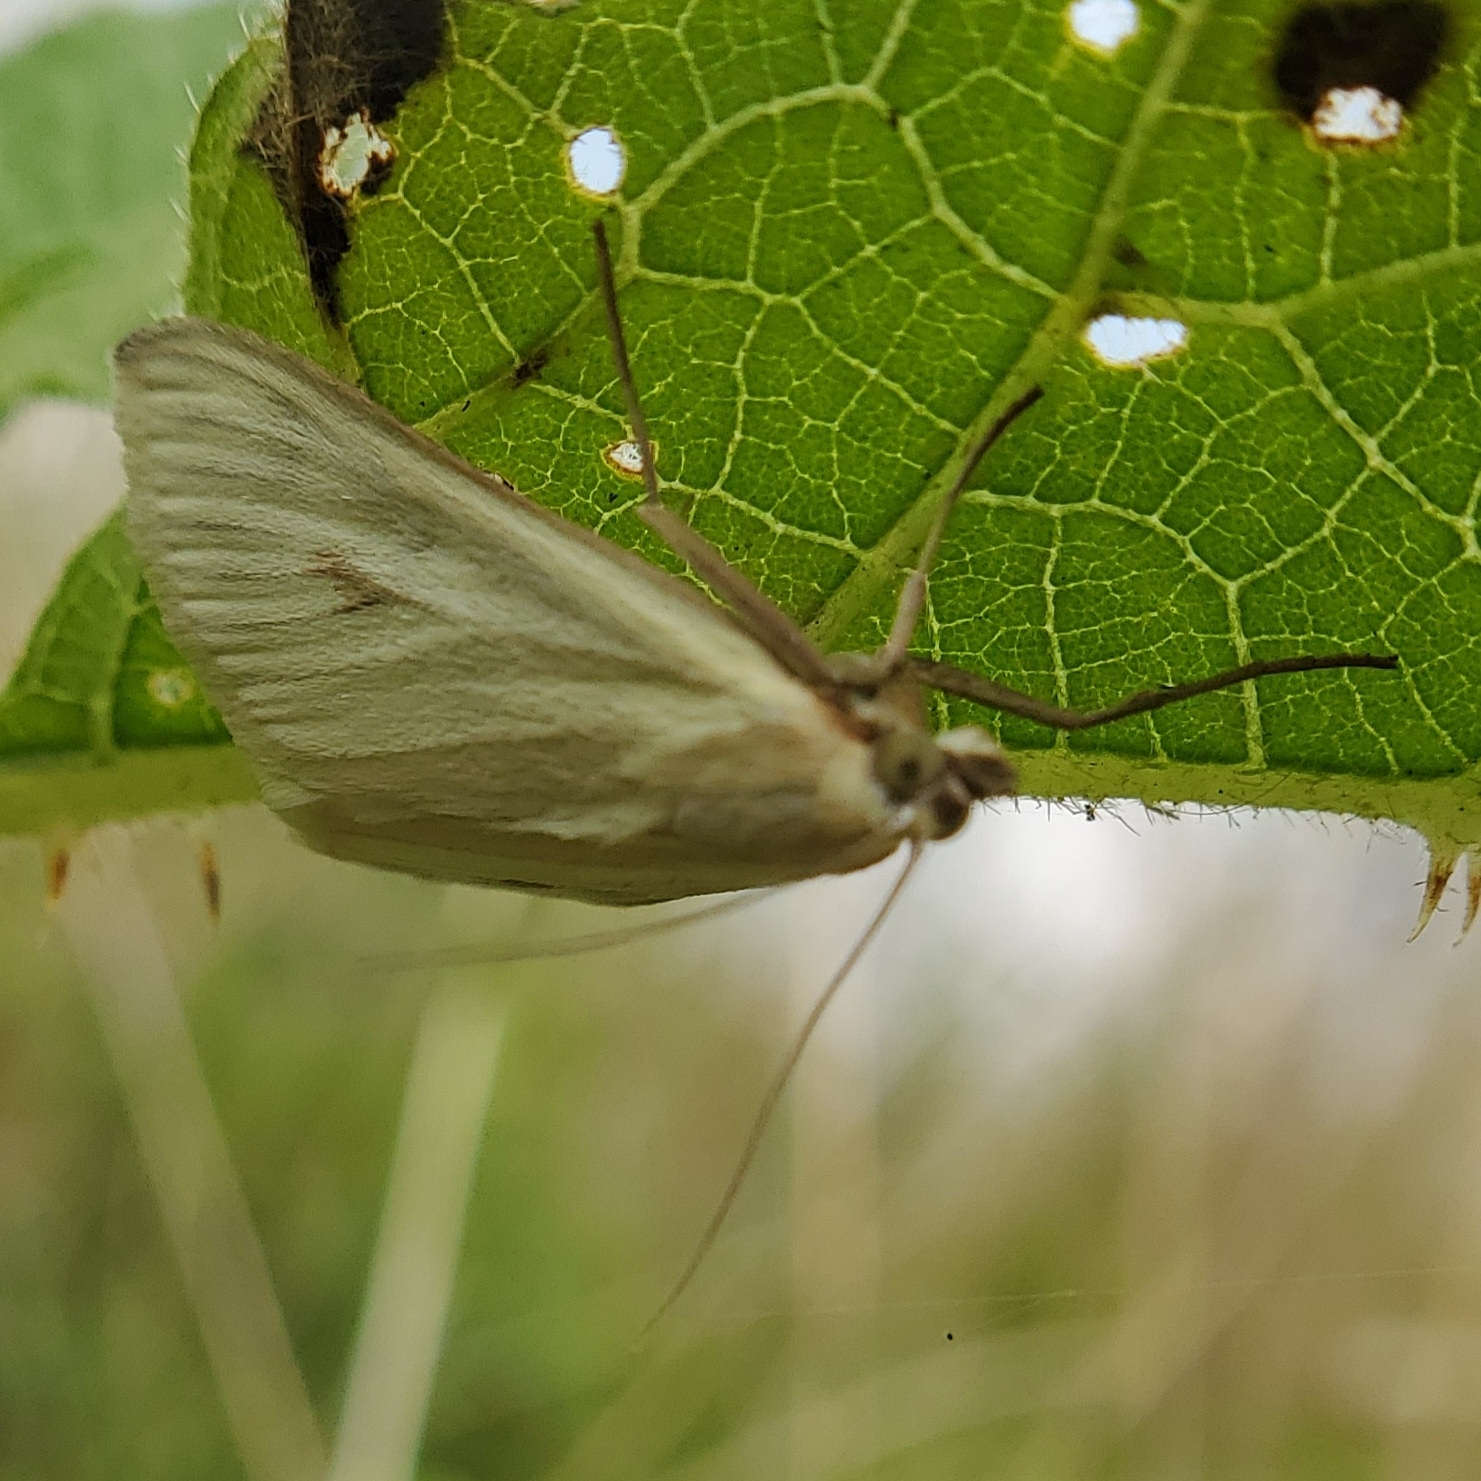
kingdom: Animalia
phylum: Arthropoda
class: Insecta
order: Lepidoptera
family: Crambidae
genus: Sitochroa
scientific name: Sitochroa palealis
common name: Greenish-yellow sitochroa moth
